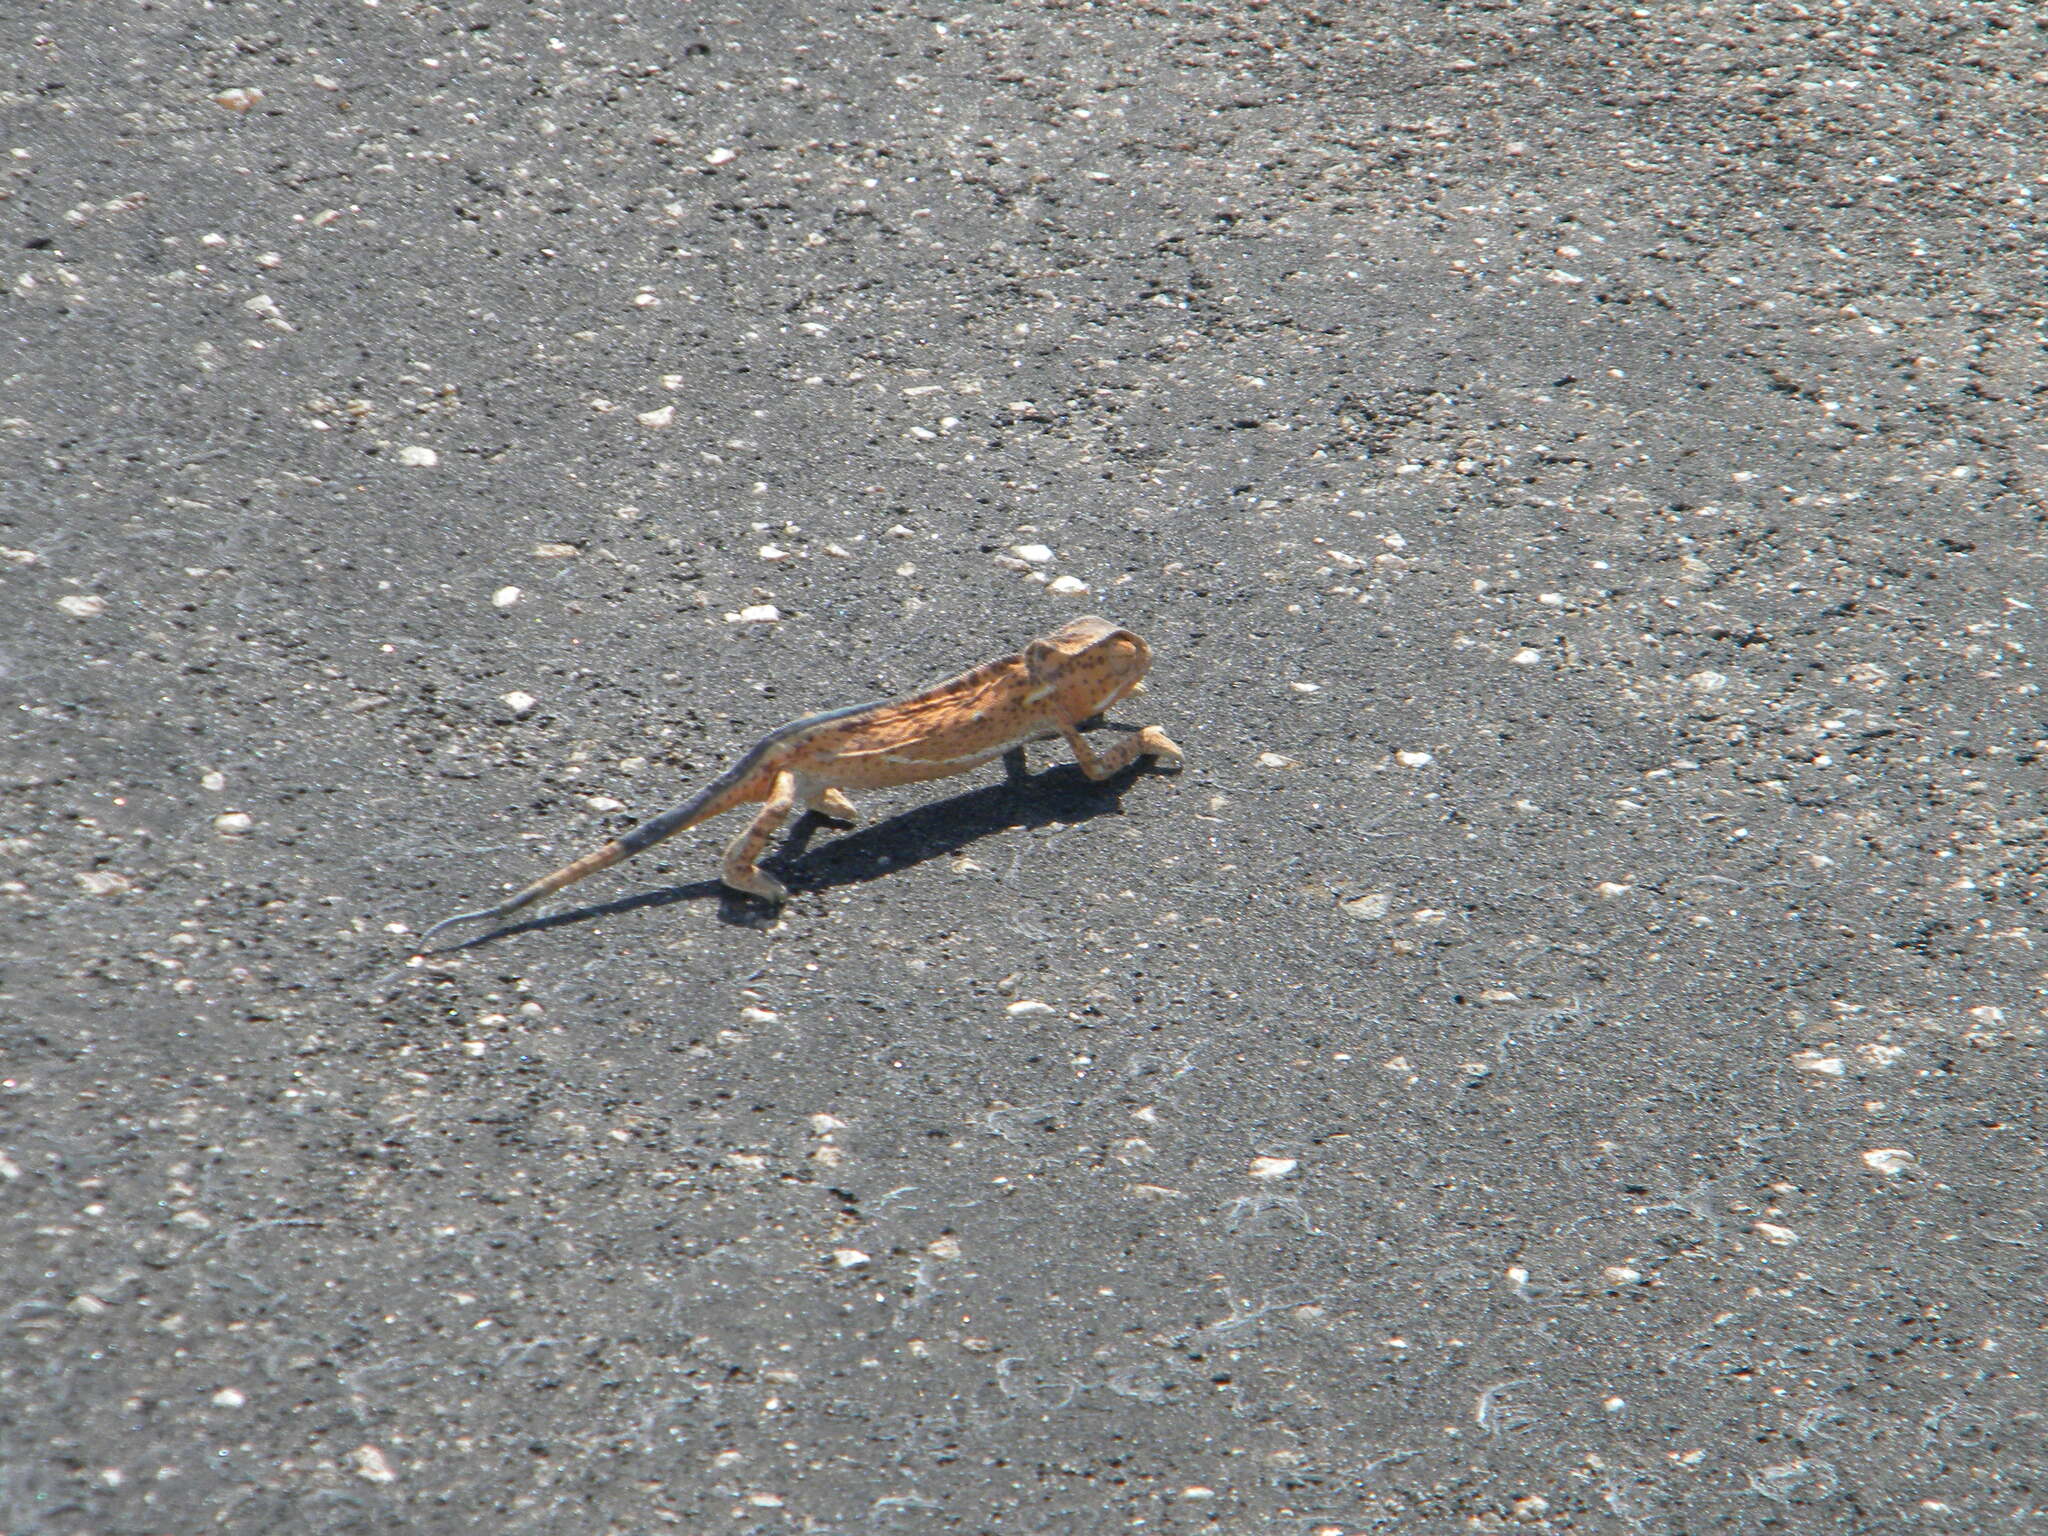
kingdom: Animalia
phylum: Chordata
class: Squamata
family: Chamaeleonidae
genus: Chamaeleo
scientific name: Chamaeleo dilepis
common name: Flapneck chameleon
